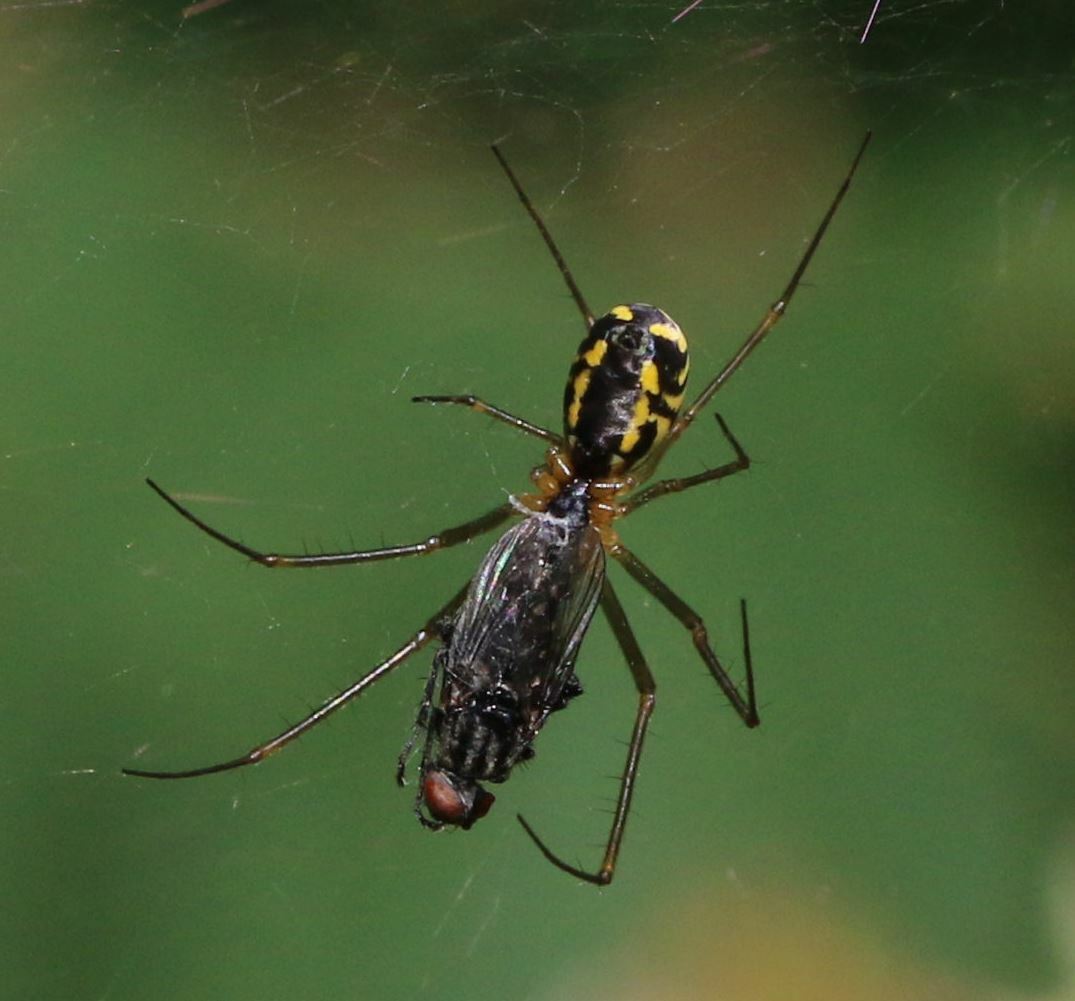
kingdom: Animalia
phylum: Arthropoda
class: Arachnida
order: Araneae
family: Linyphiidae
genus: Neriene
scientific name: Neriene radiata
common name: Filmy dome spider
